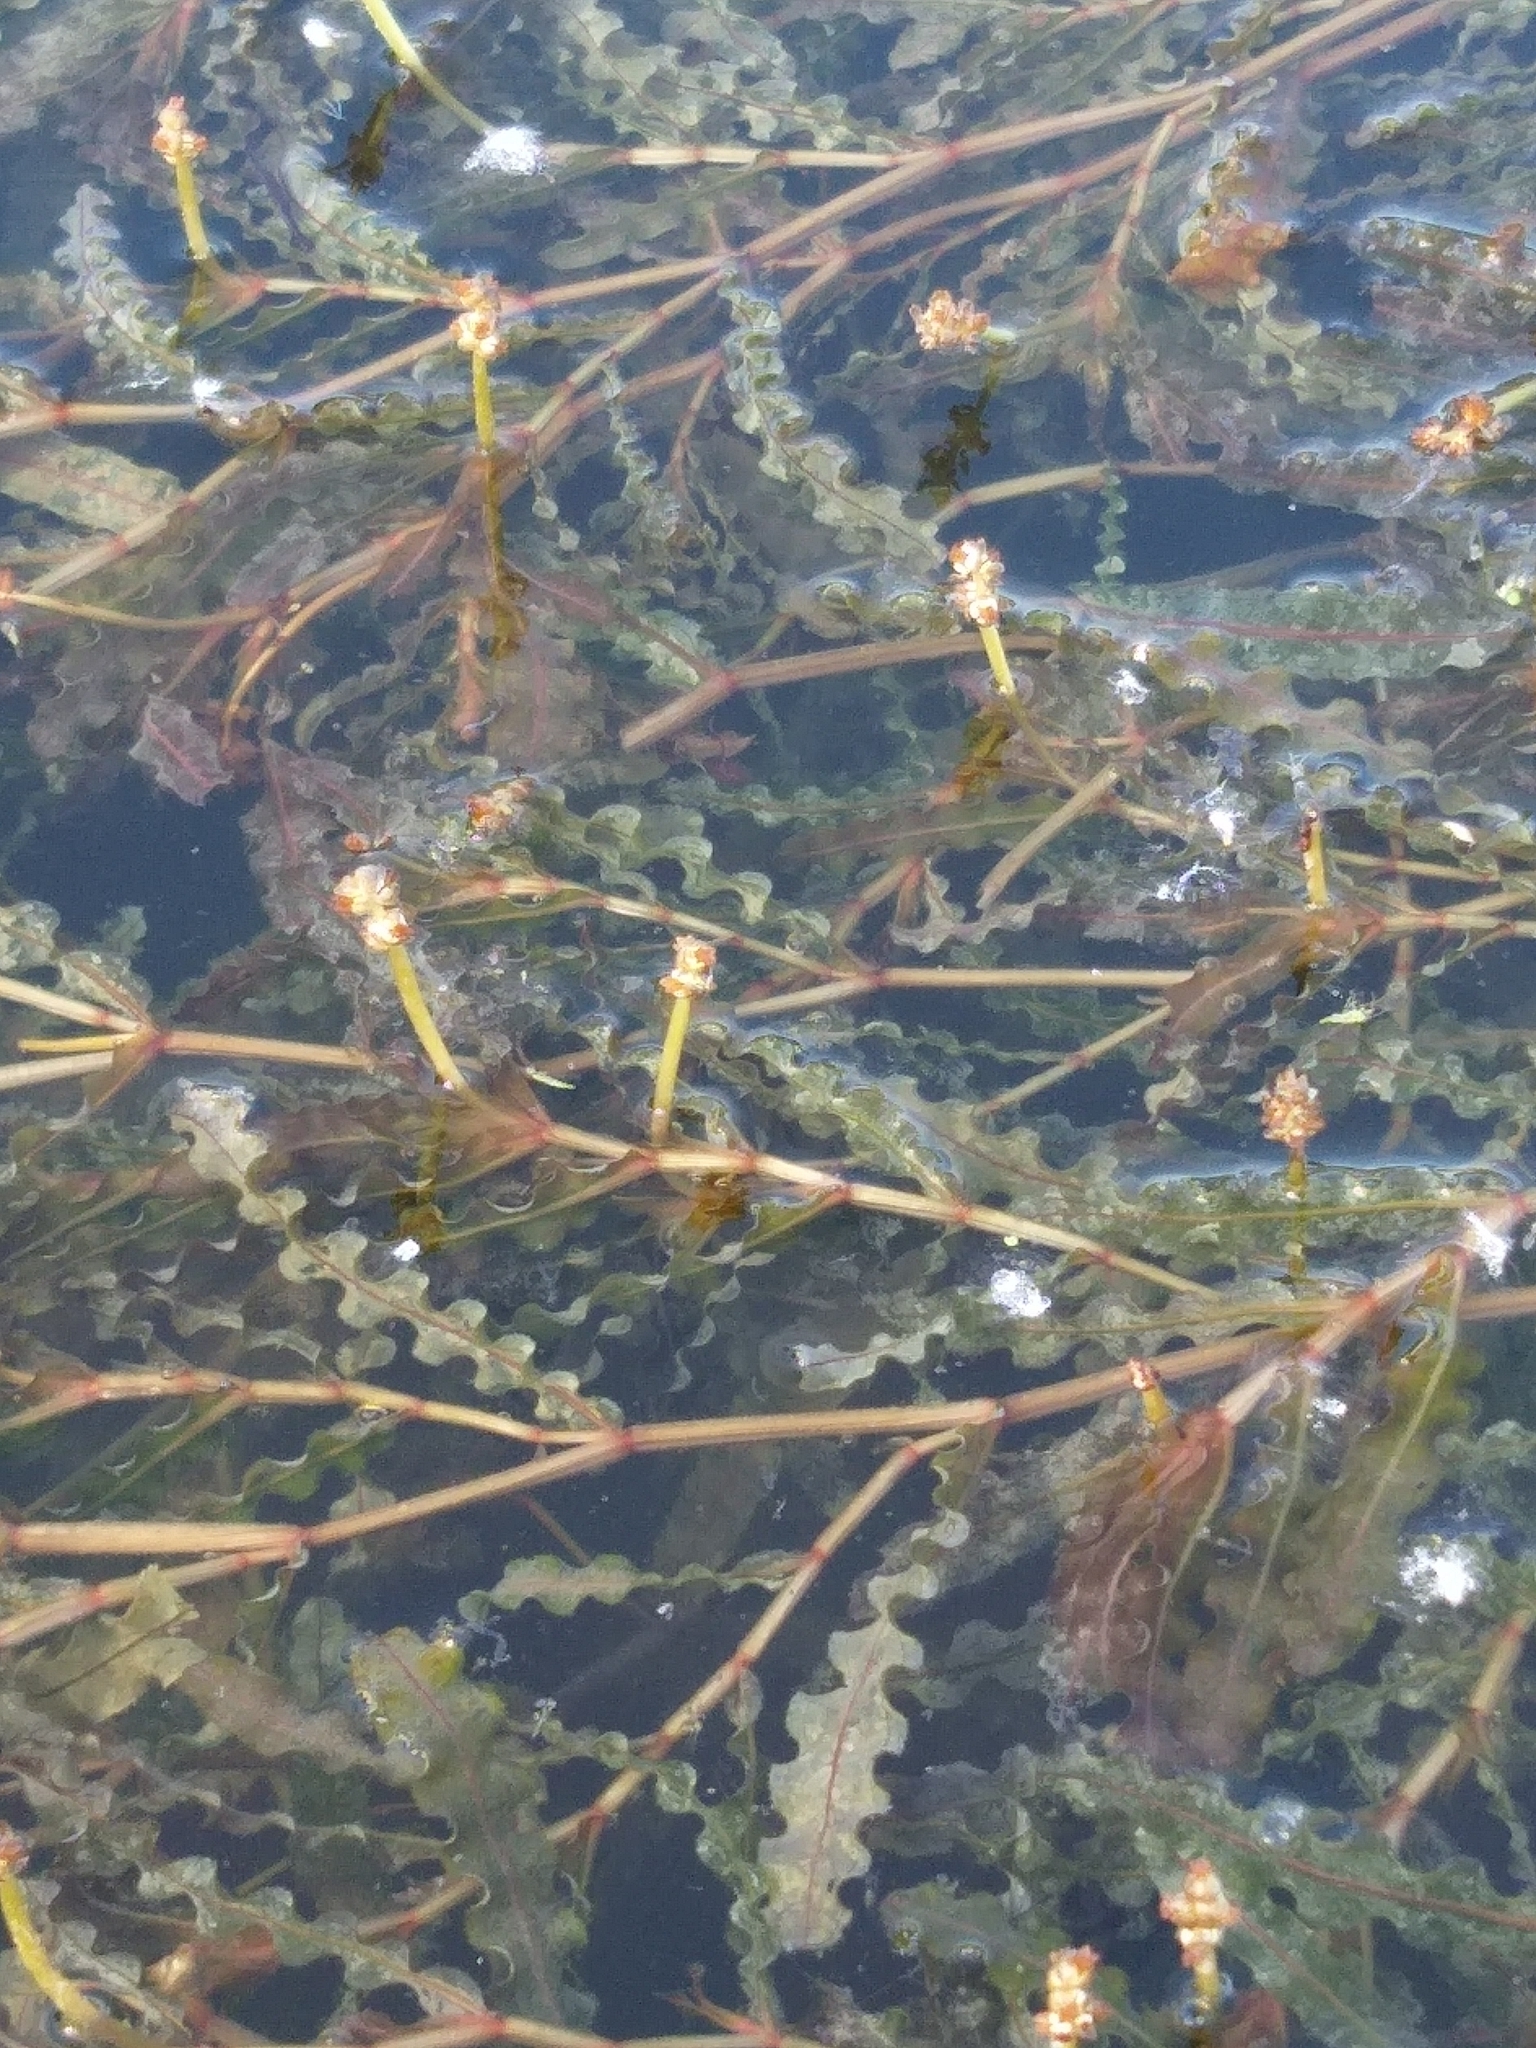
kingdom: Plantae
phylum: Tracheophyta
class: Liliopsida
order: Alismatales
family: Potamogetonaceae
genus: Potamogeton
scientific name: Potamogeton crispus
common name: Curled pondweed
